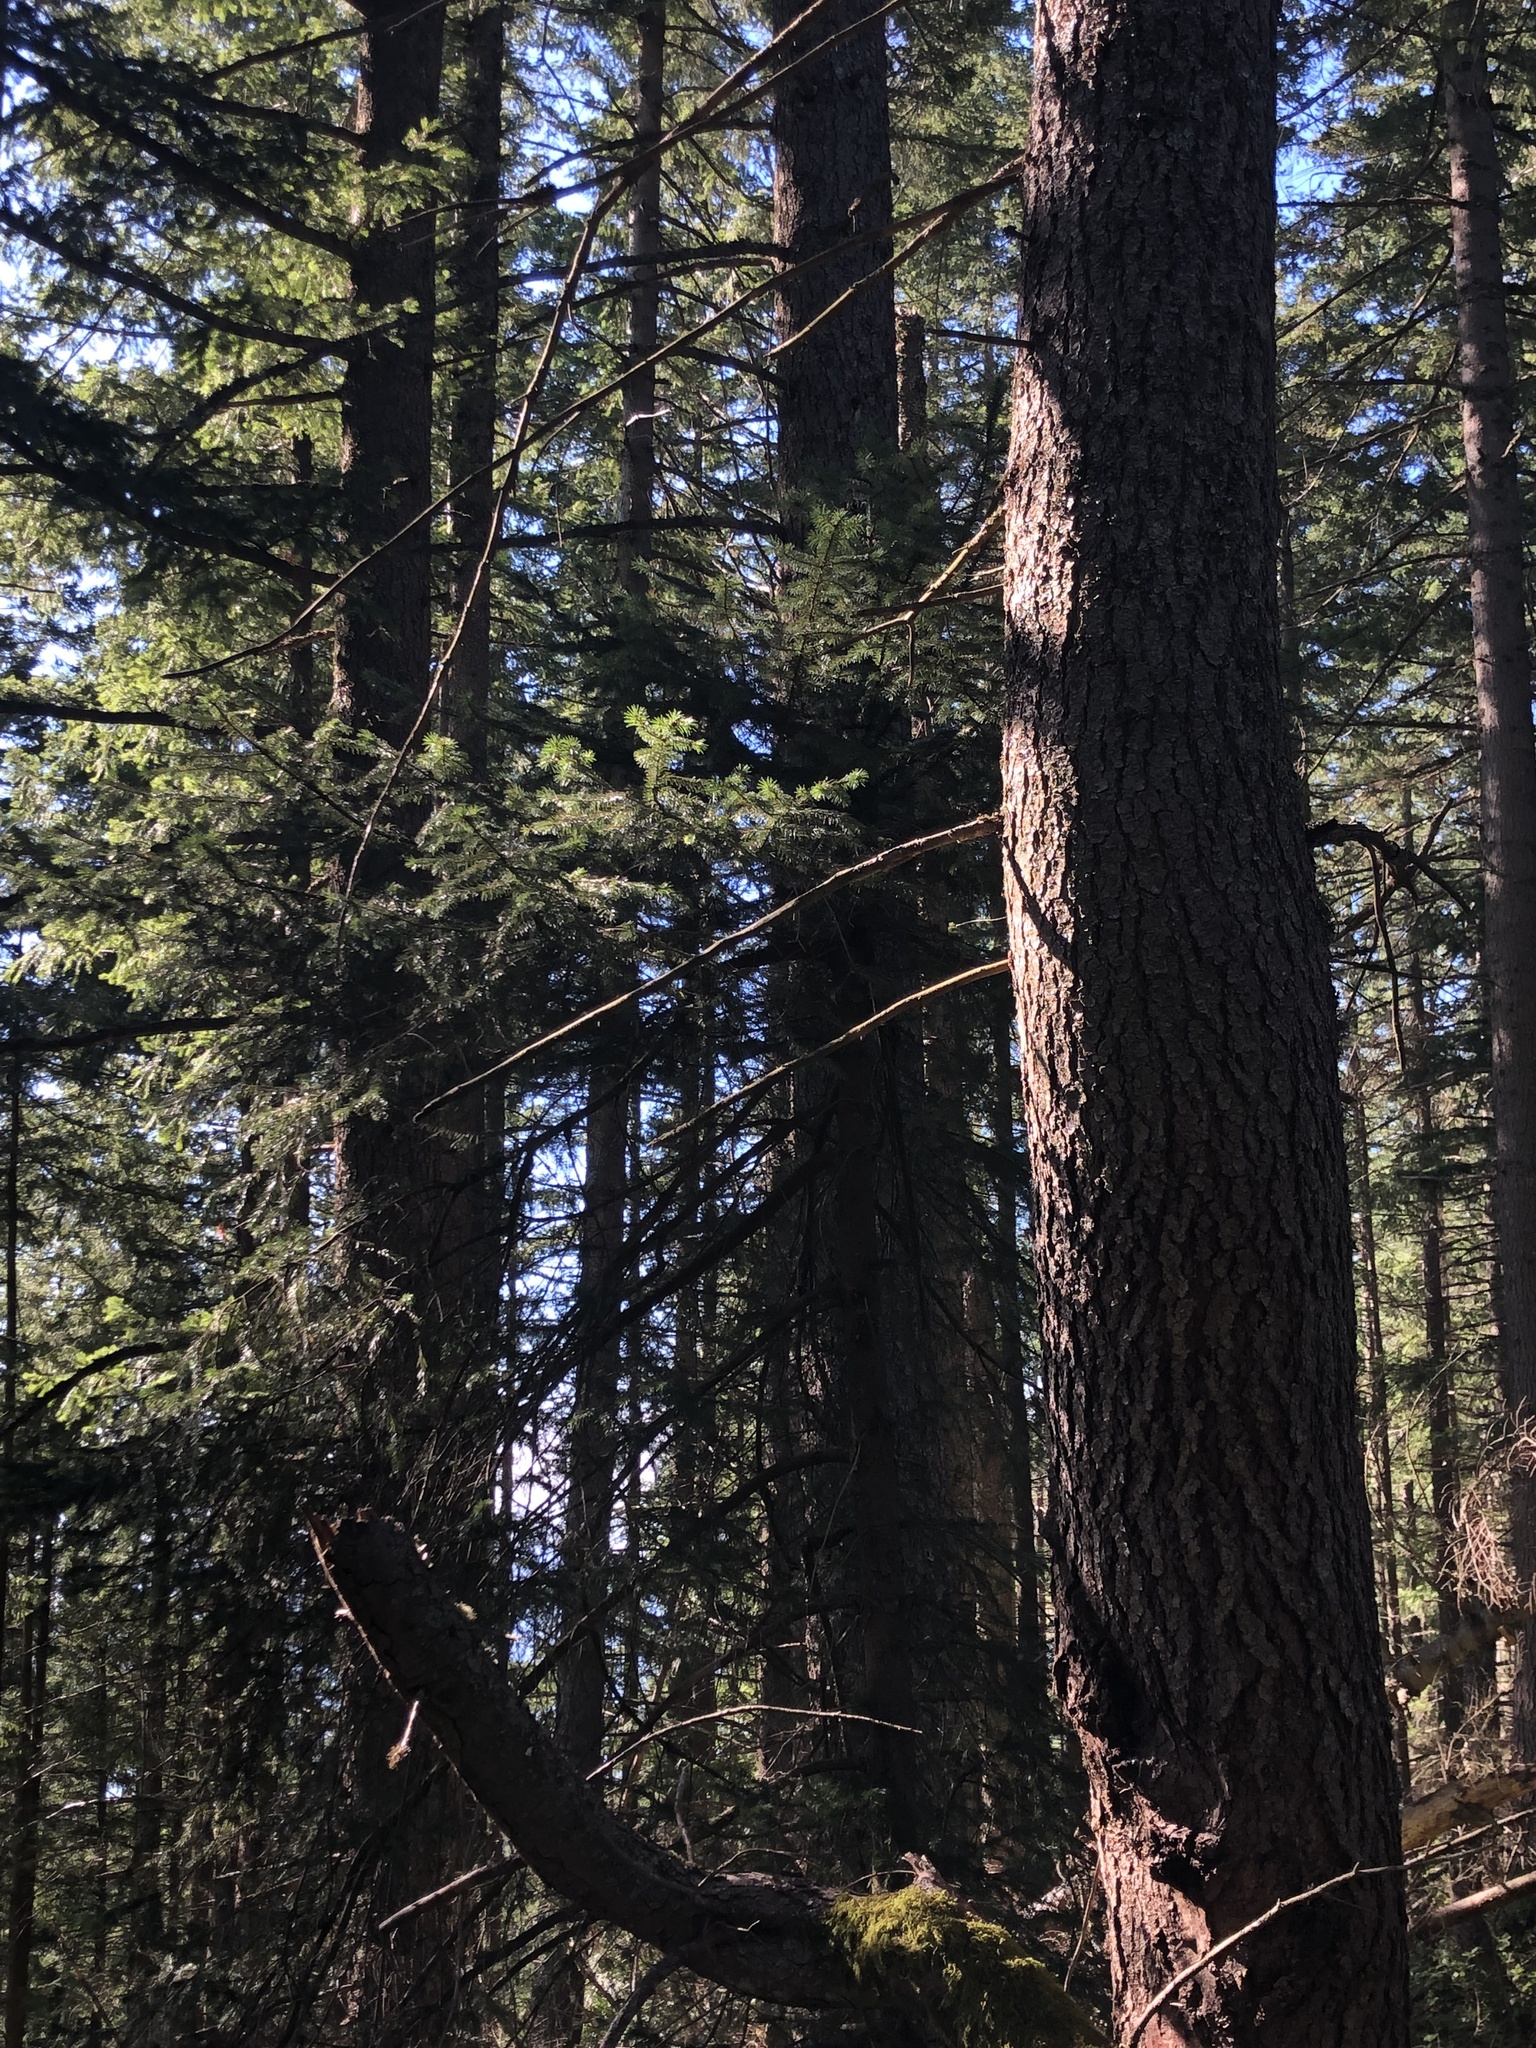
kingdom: Plantae
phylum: Tracheophyta
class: Pinopsida
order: Pinales
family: Pinaceae
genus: Pseudotsuga
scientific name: Pseudotsuga menziesii
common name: Douglas fir
